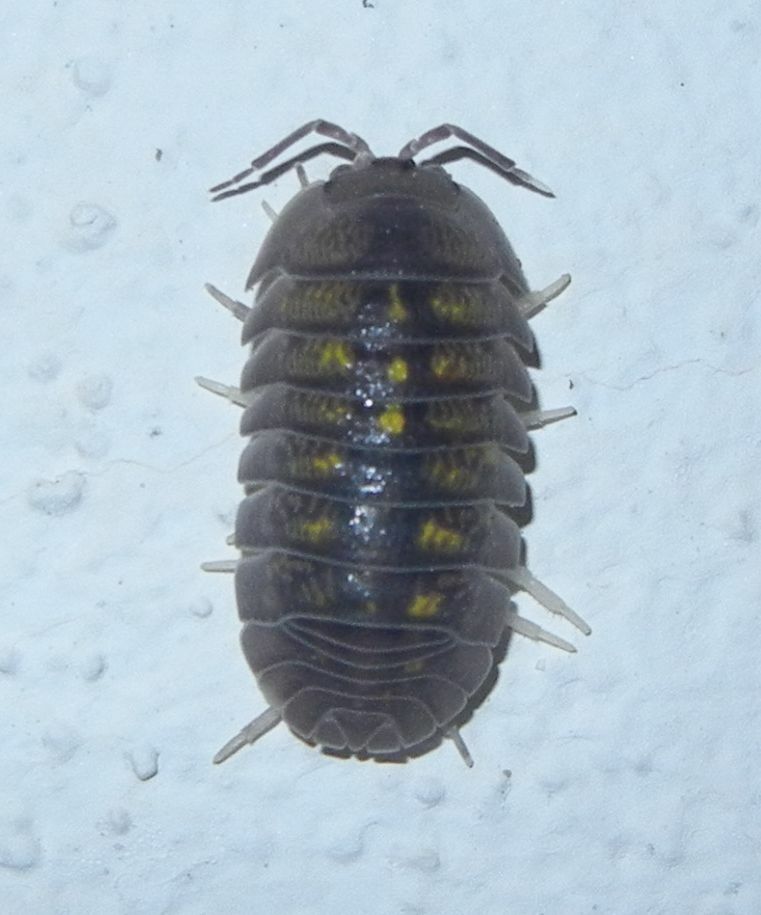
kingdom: Animalia
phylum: Arthropoda
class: Malacostraca
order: Isopoda
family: Armadillidiidae
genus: Armadillidium
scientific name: Armadillidium granulatum
